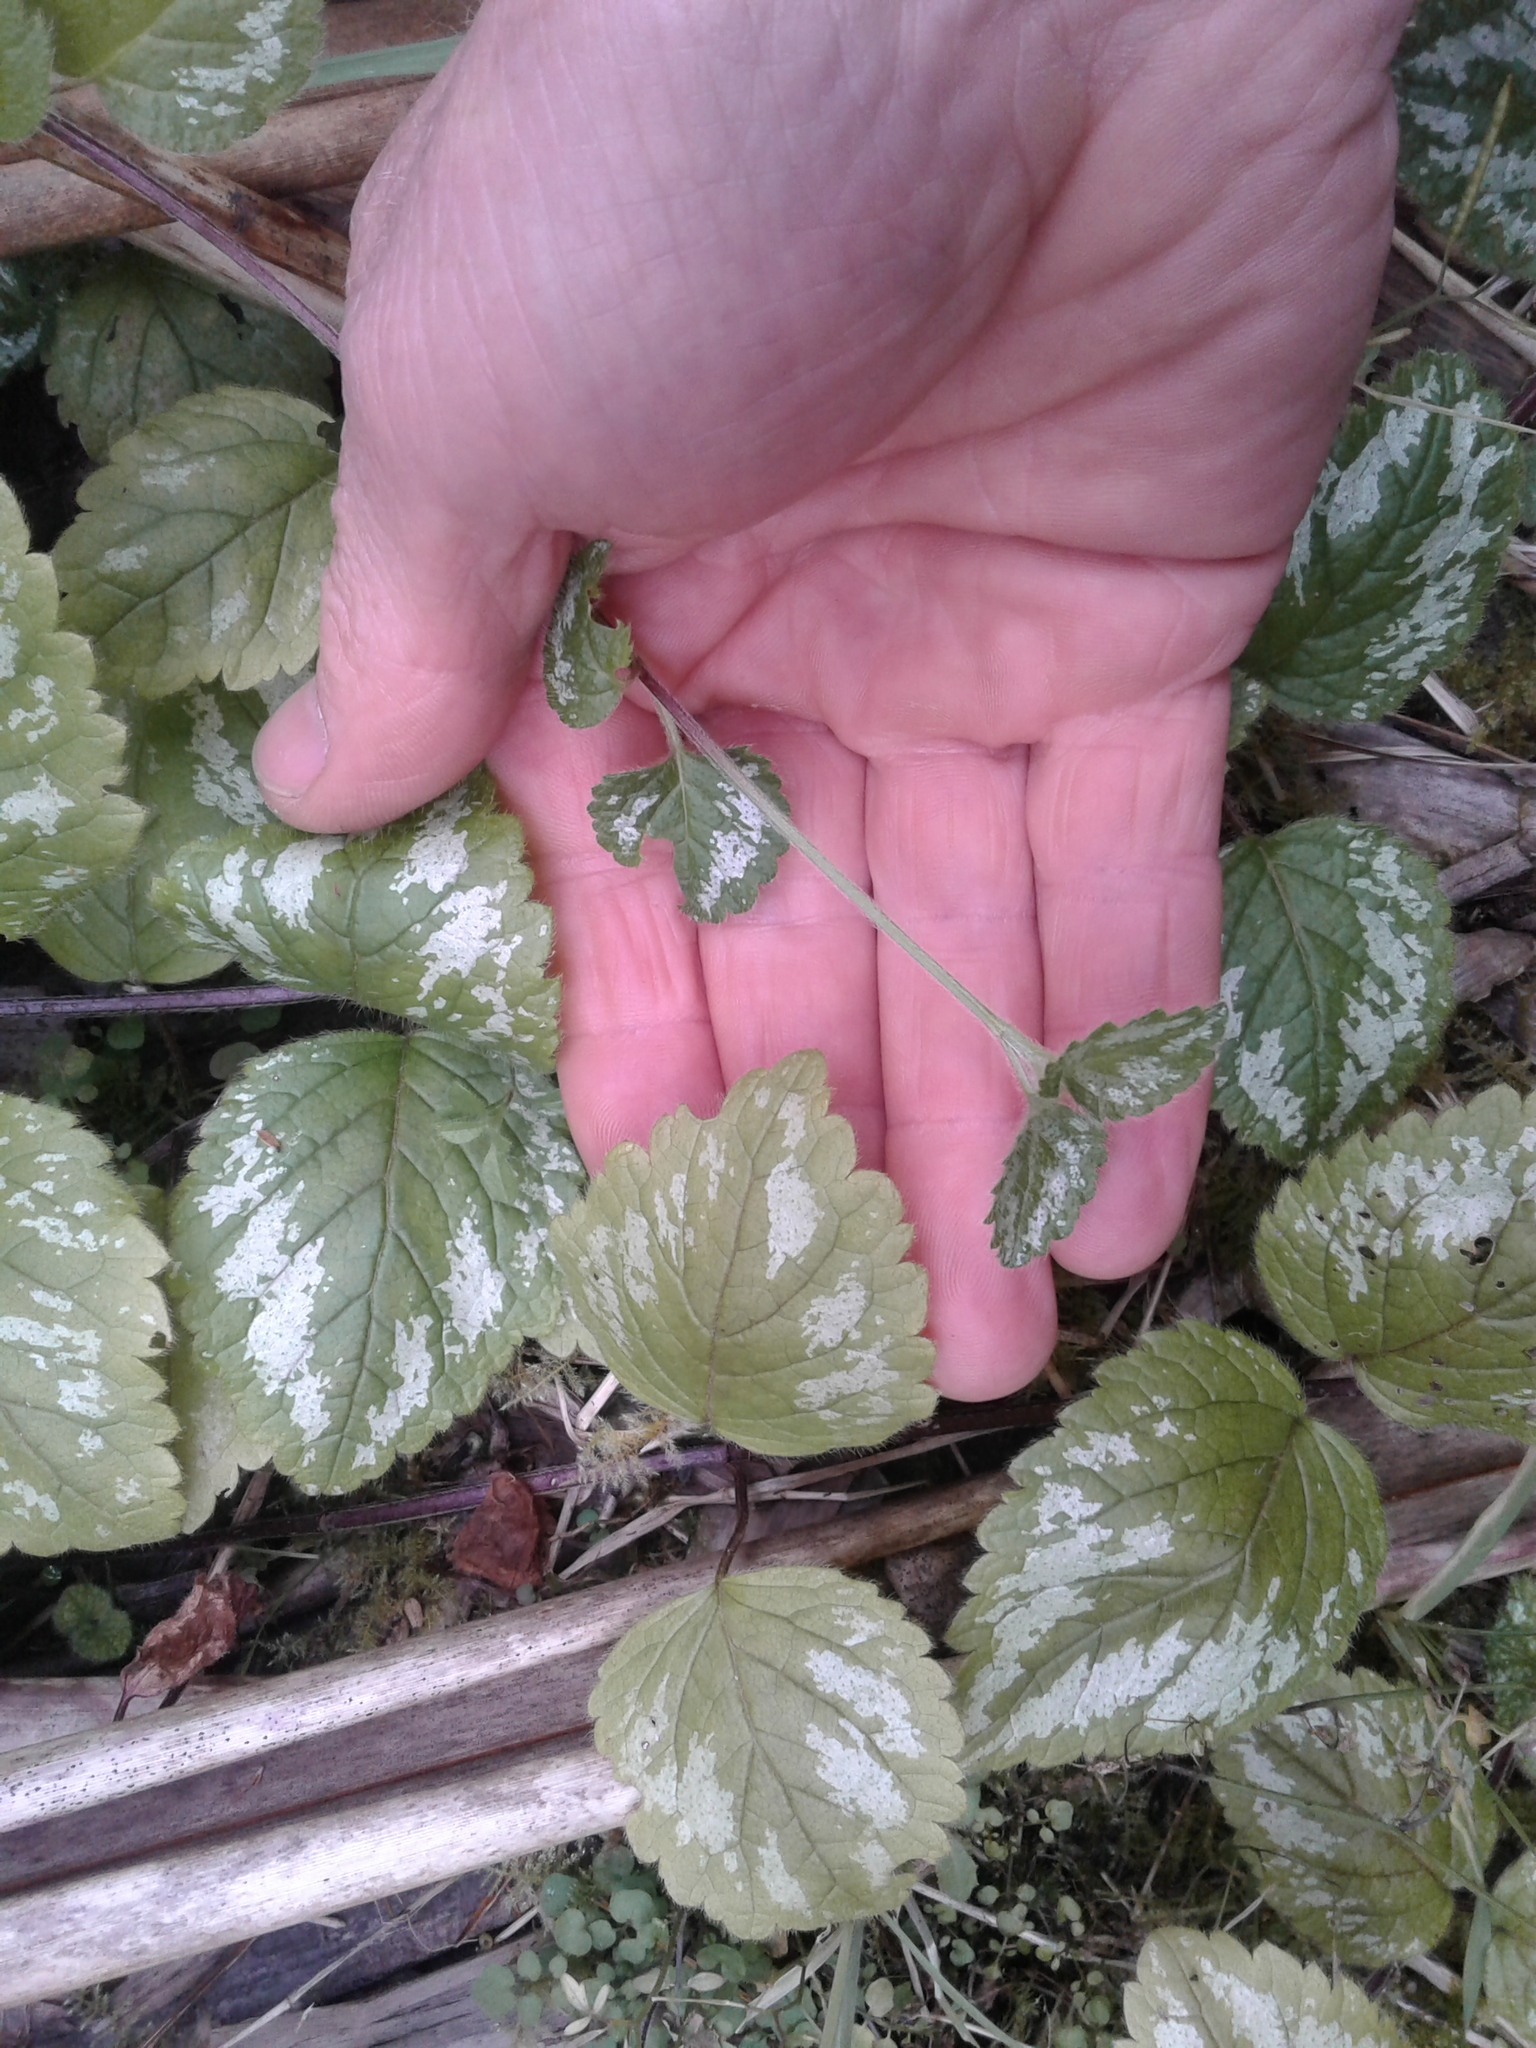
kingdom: Plantae
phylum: Tracheophyta
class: Magnoliopsida
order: Lamiales
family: Lamiaceae
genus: Lamium
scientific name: Lamium galeobdolon
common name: Yellow archangel
